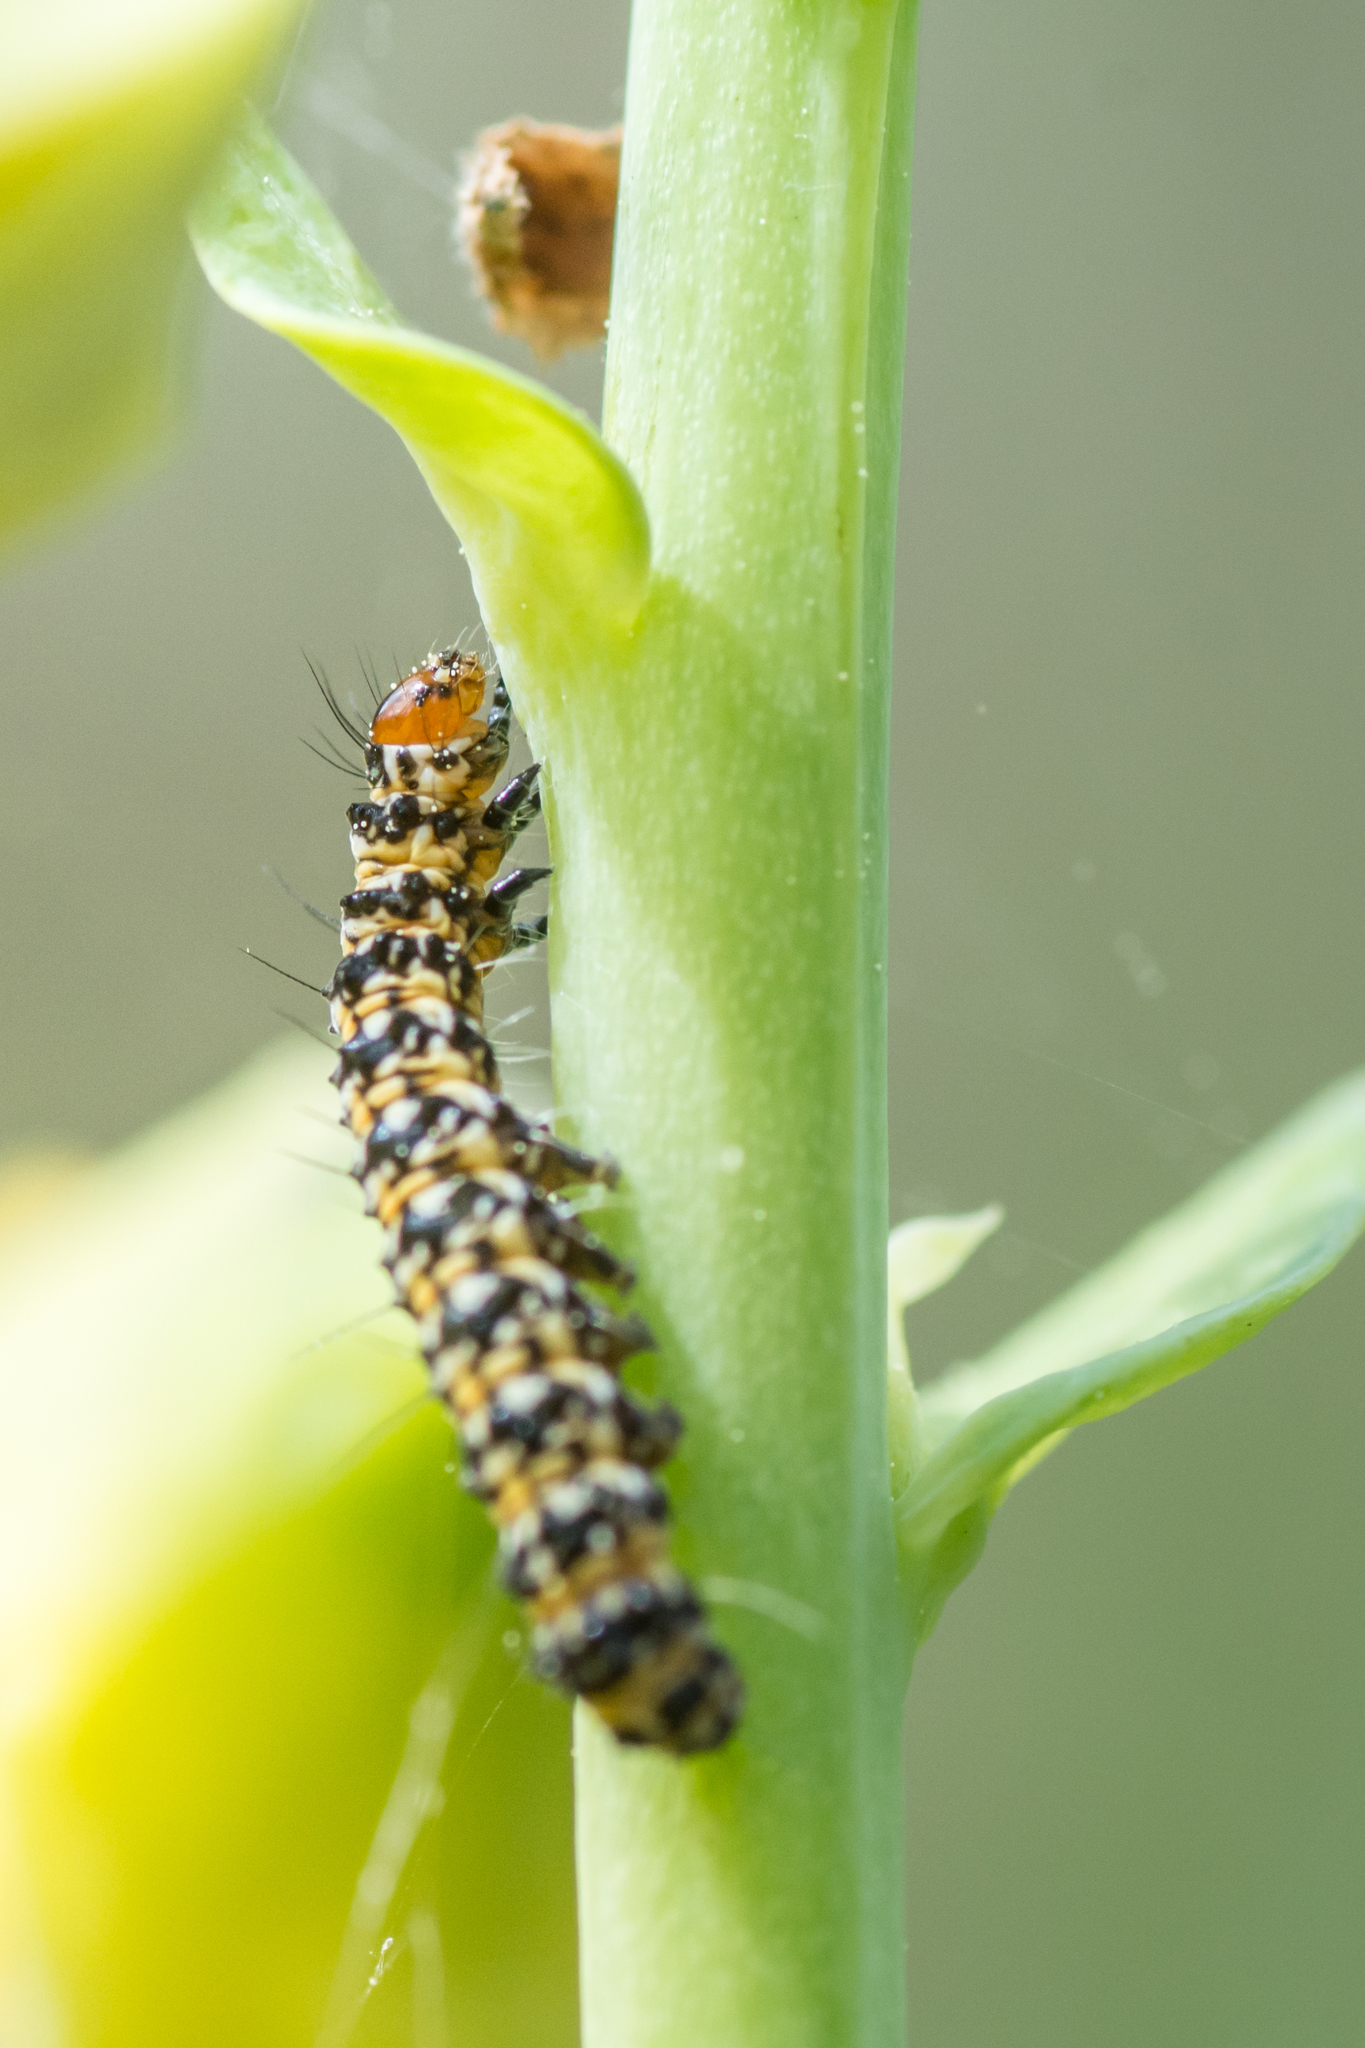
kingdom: Animalia
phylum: Arthropoda
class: Insecta
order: Lepidoptera
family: Erebidae
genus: Utetheisa
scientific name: Utetheisa ornatrix
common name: Beautiful utetheisa
